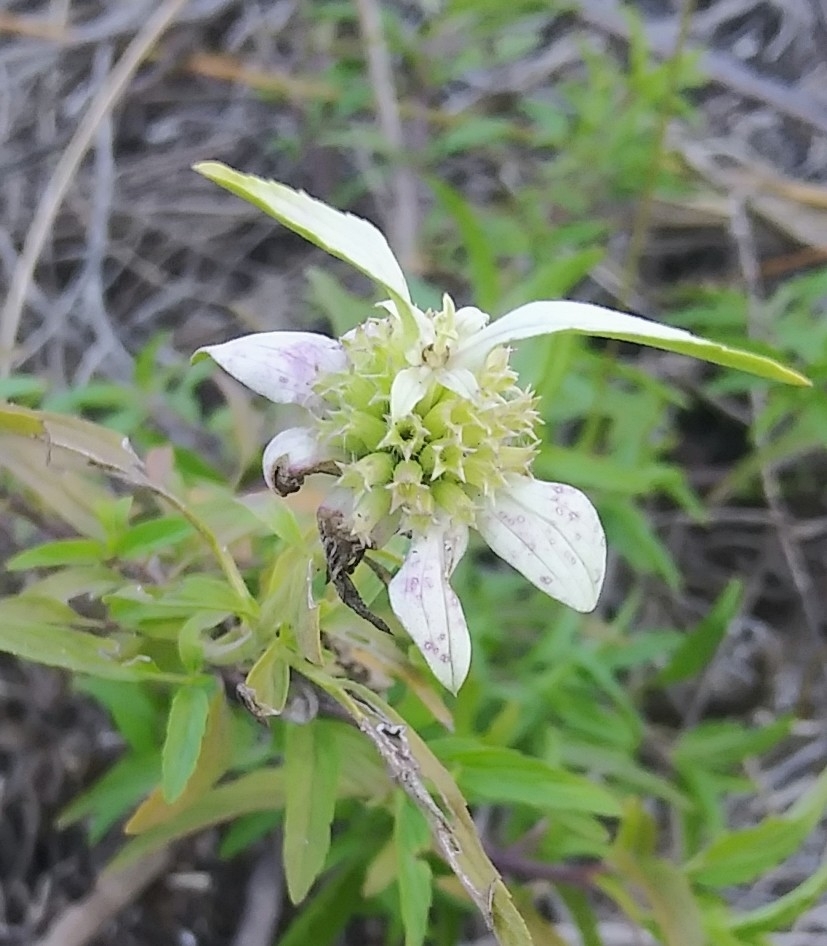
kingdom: Plantae
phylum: Tracheophyta
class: Magnoliopsida
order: Lamiales
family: Lamiaceae
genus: Monarda
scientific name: Monarda punctata
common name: Dotted monarda
